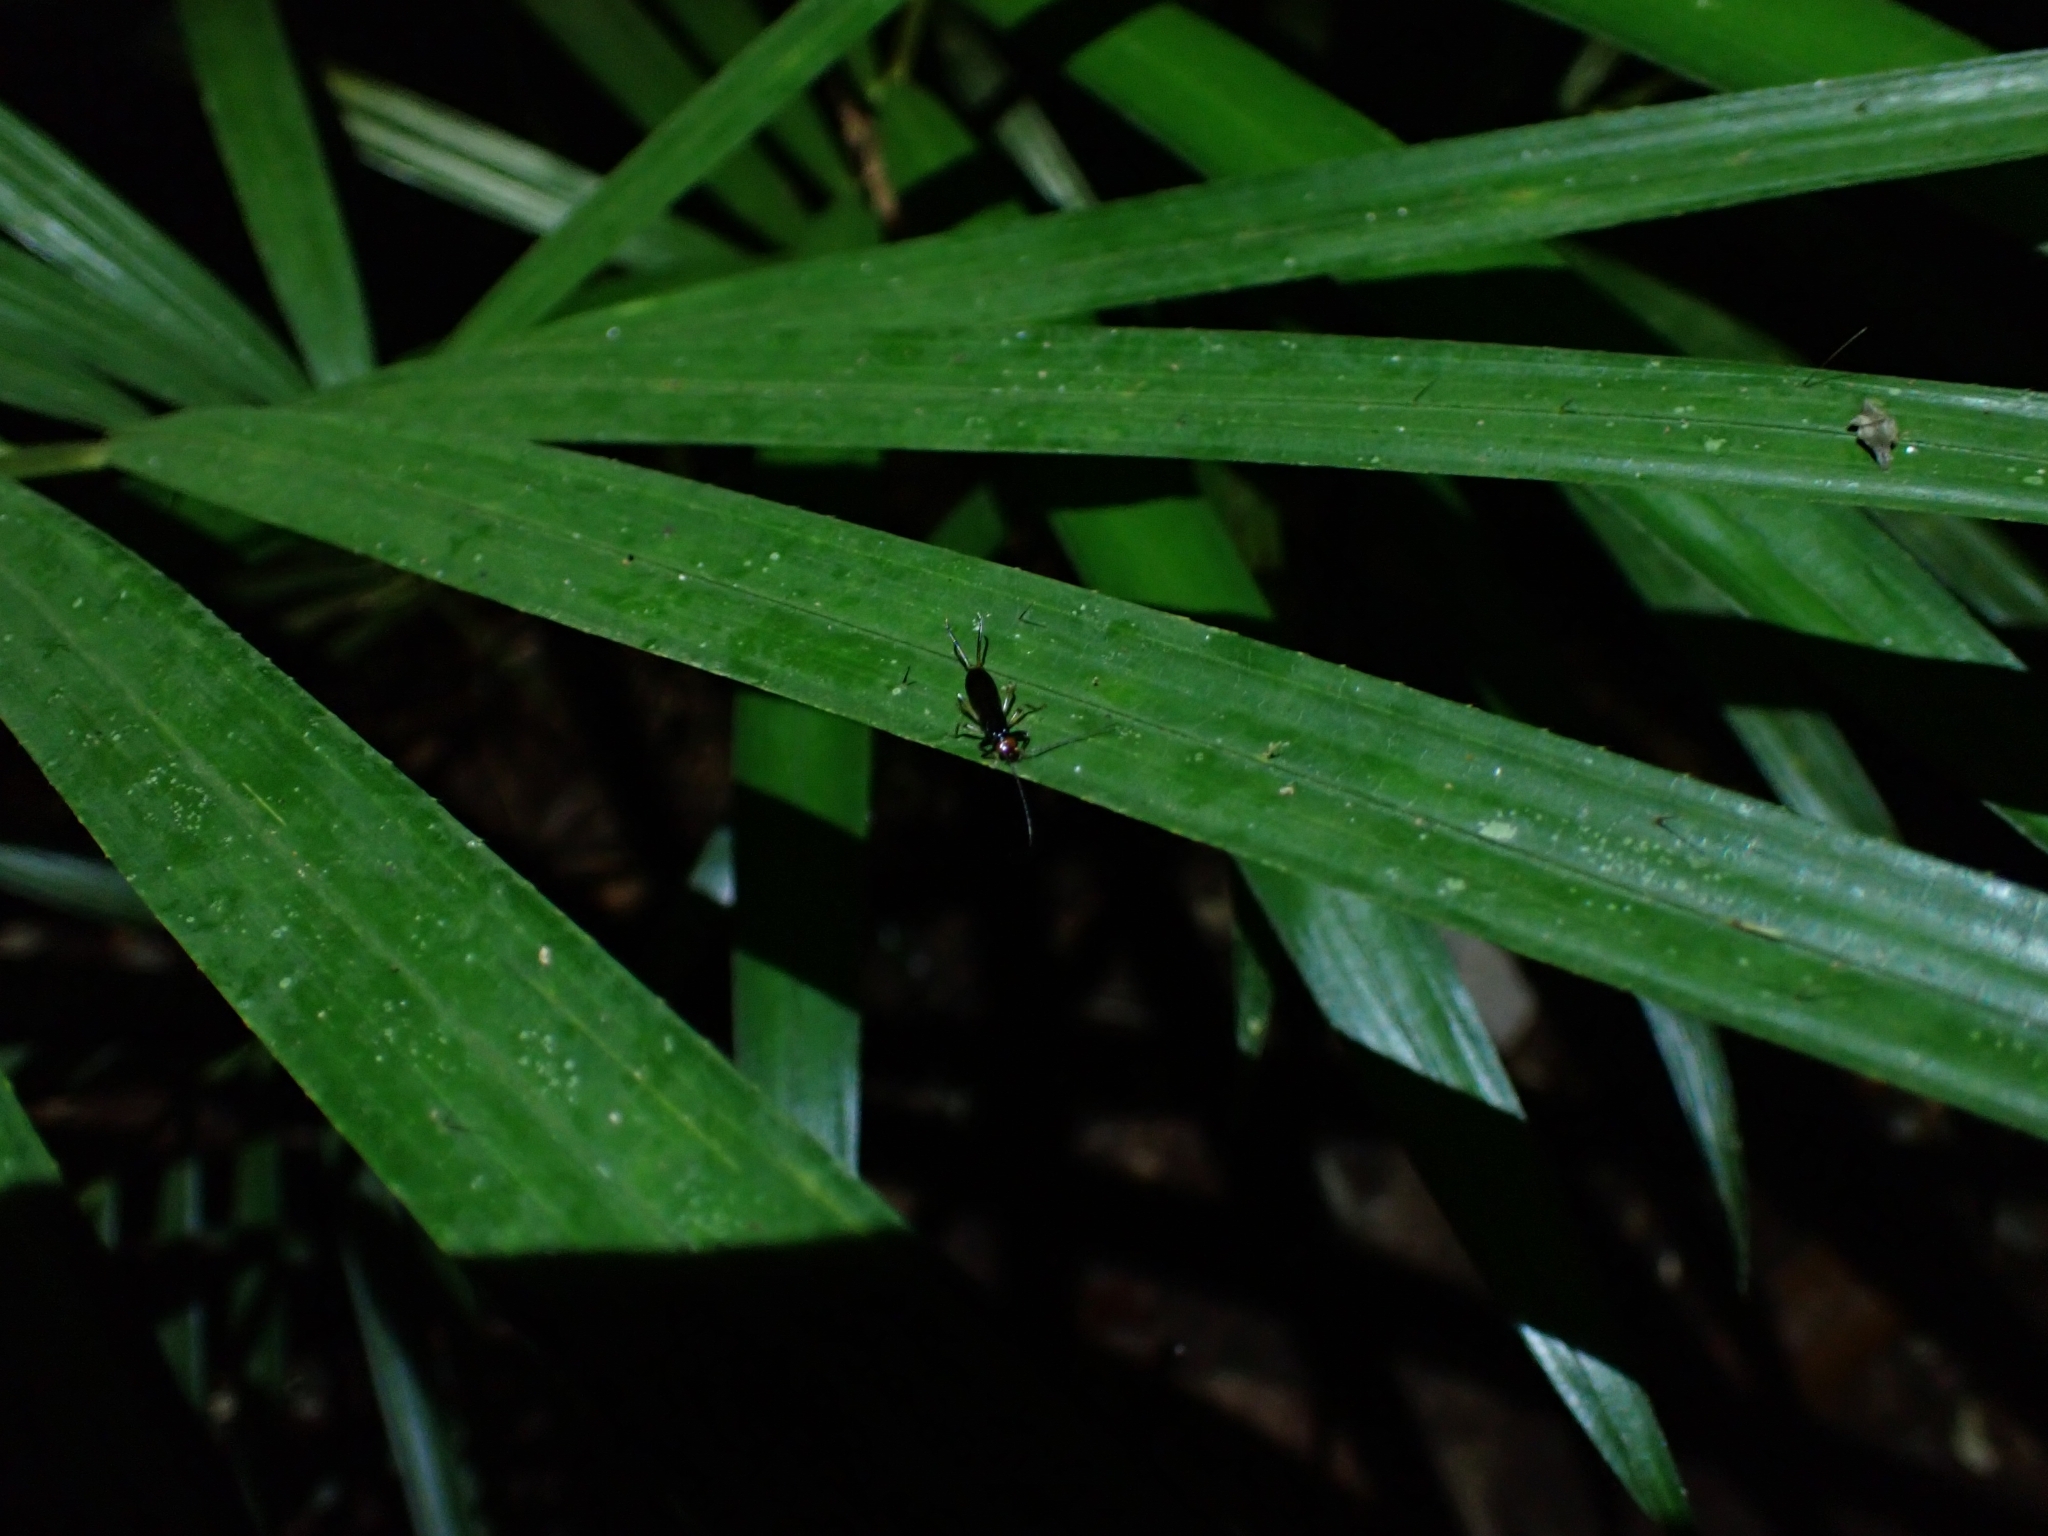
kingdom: Animalia
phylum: Arthropoda
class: Insecta
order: Dermaptera
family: Forficulidae
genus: Syntonus
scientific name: Syntonus venus
